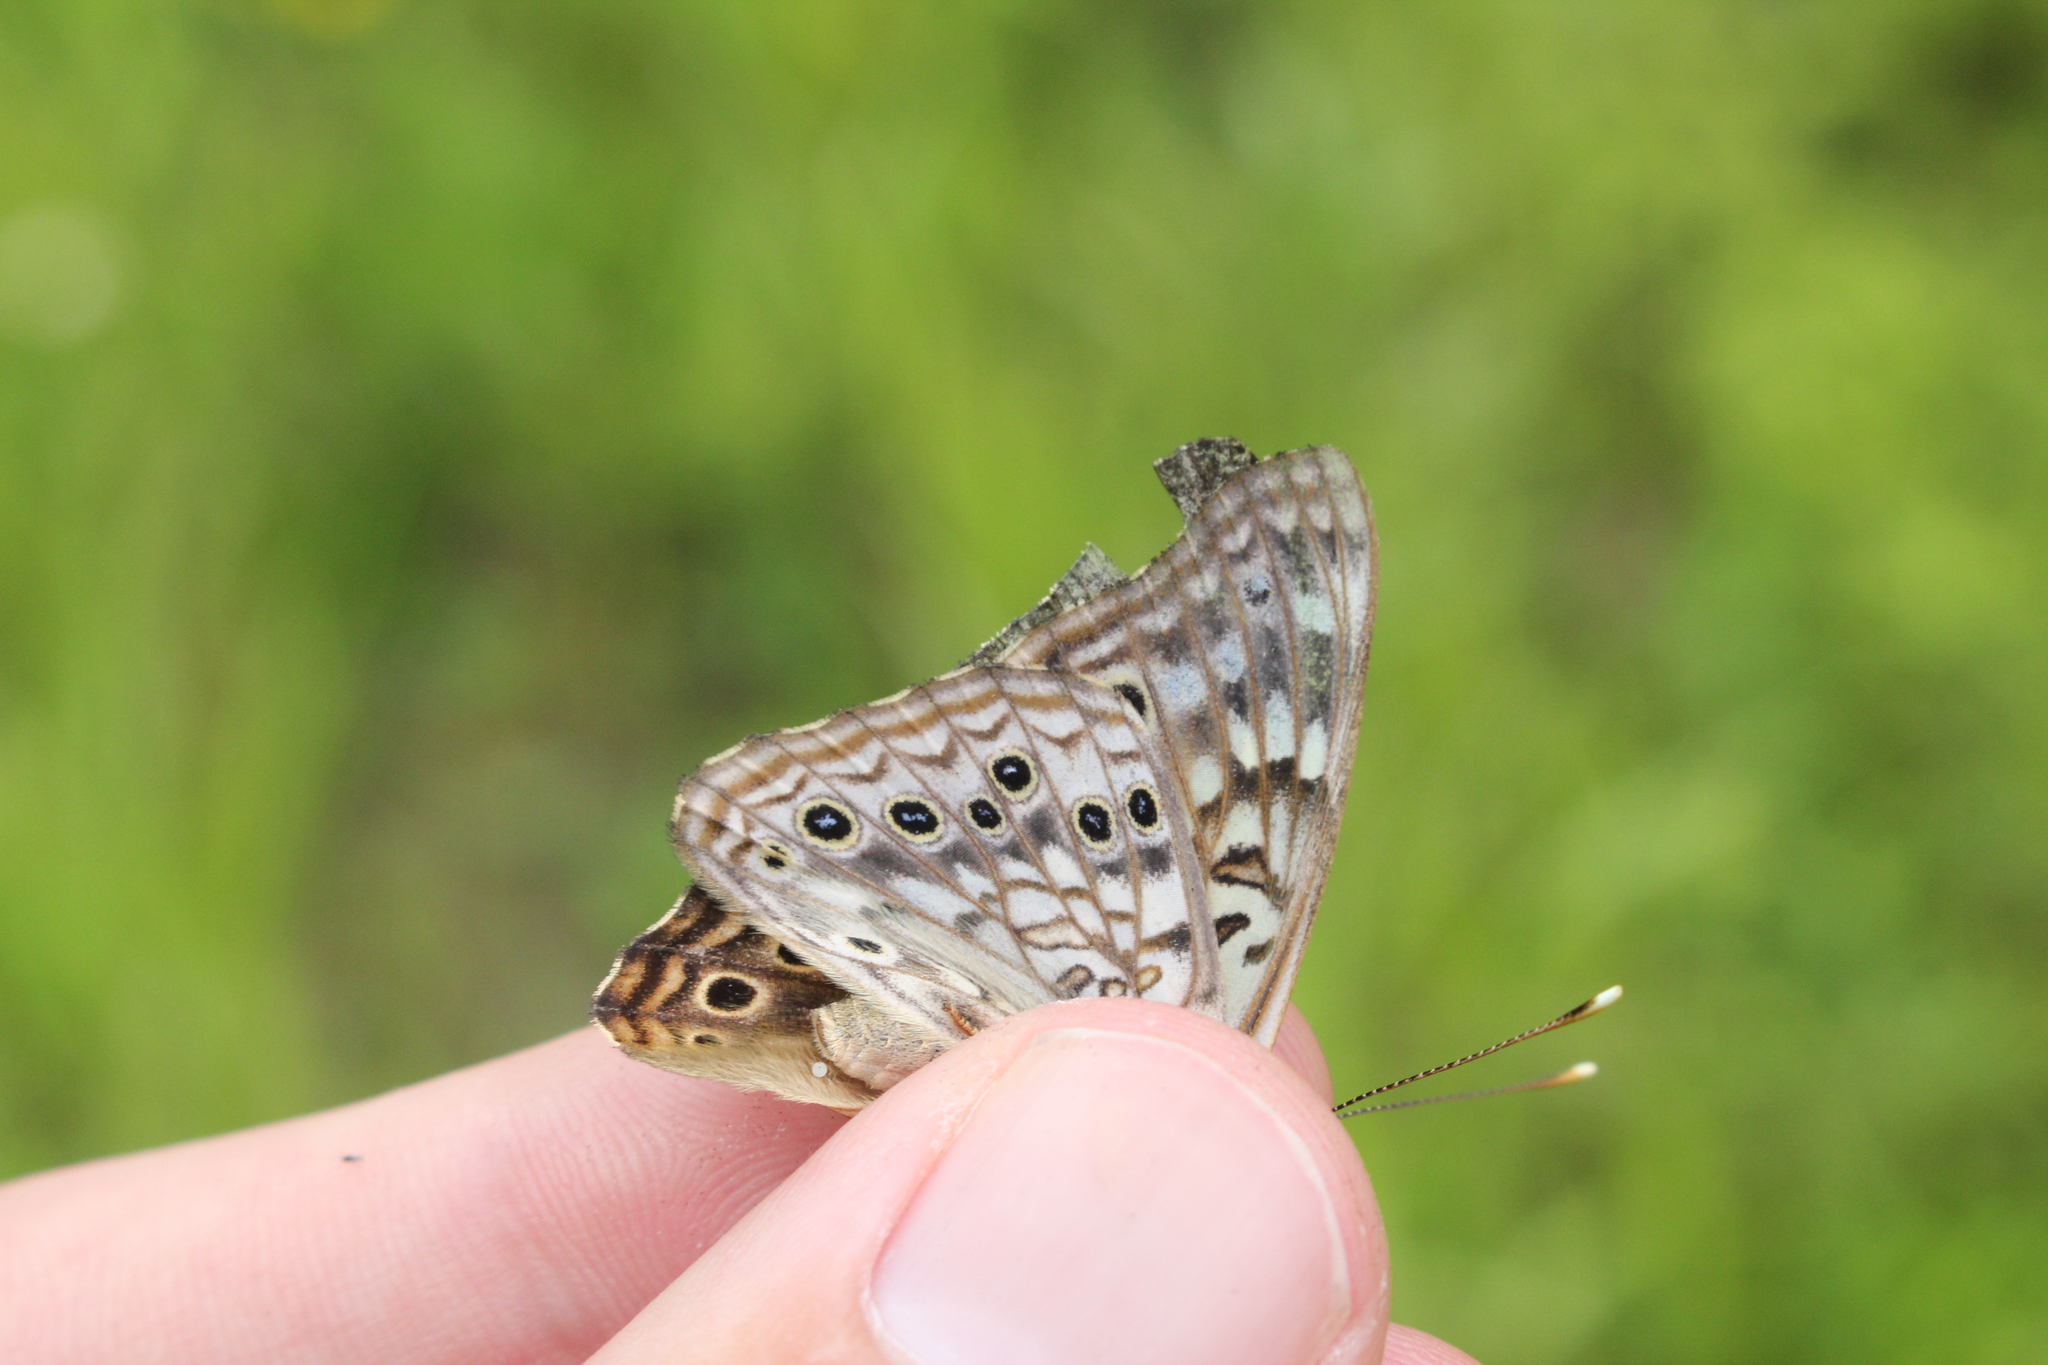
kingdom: Animalia
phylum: Arthropoda
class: Insecta
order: Lepidoptera
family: Nymphalidae
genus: Asterocampa
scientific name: Asterocampa celtis
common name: Hackberry emperor
